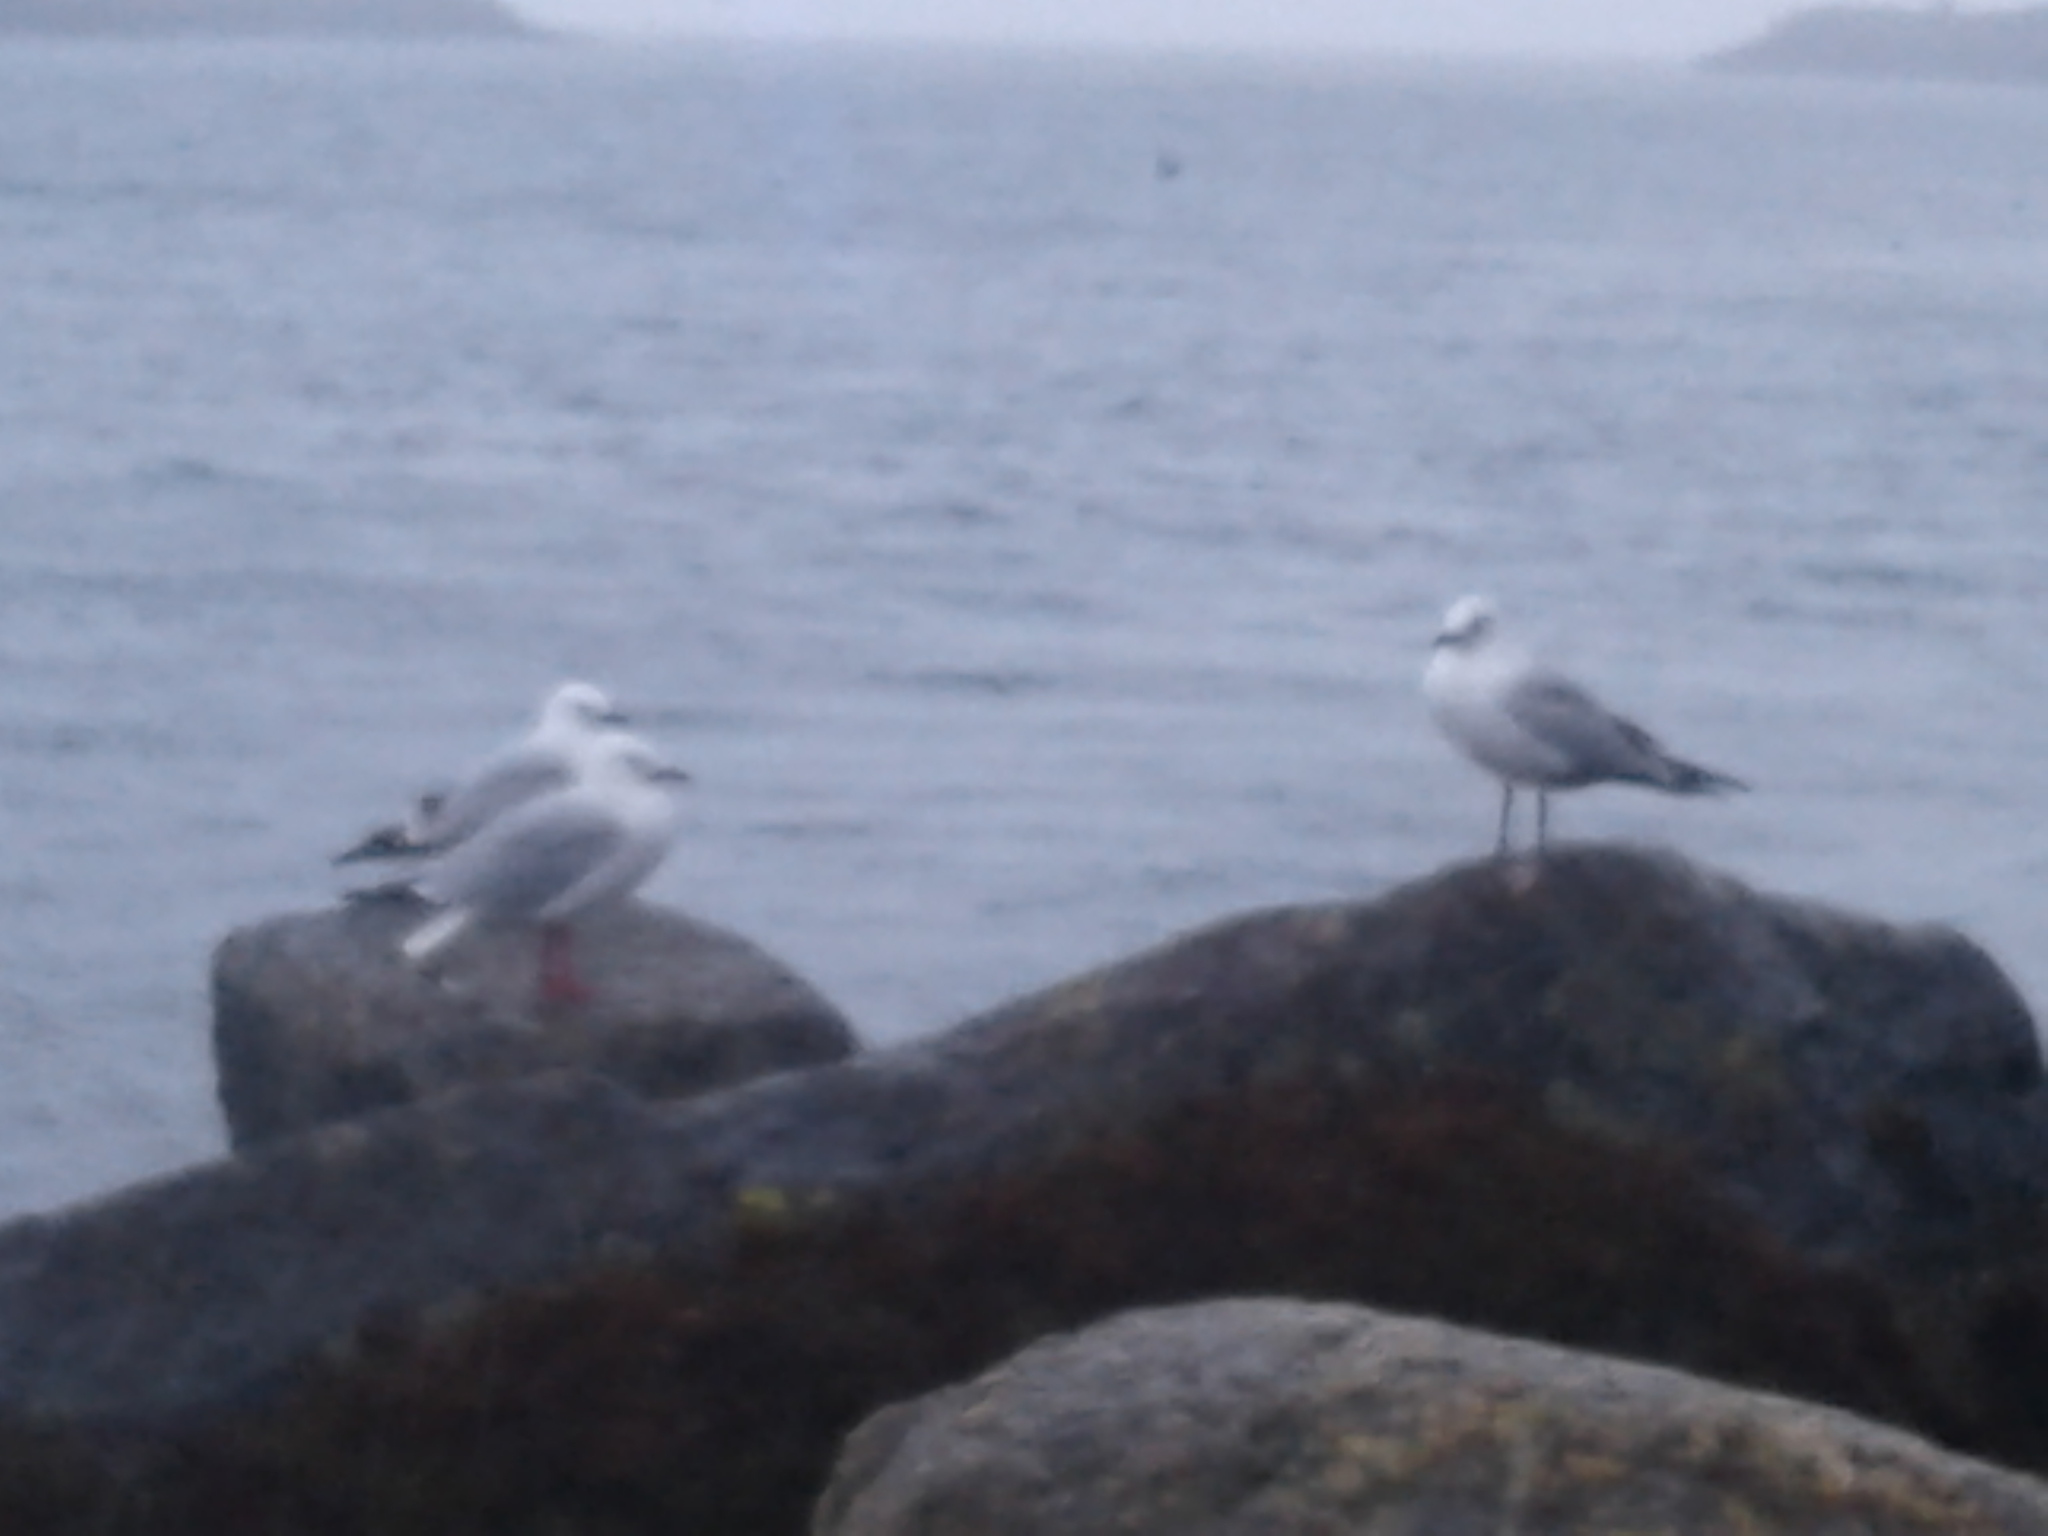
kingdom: Animalia
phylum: Chordata
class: Aves
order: Charadriiformes
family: Laridae
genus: Chroicocephalus
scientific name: Chroicocephalus novaehollandiae
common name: Silver gull
